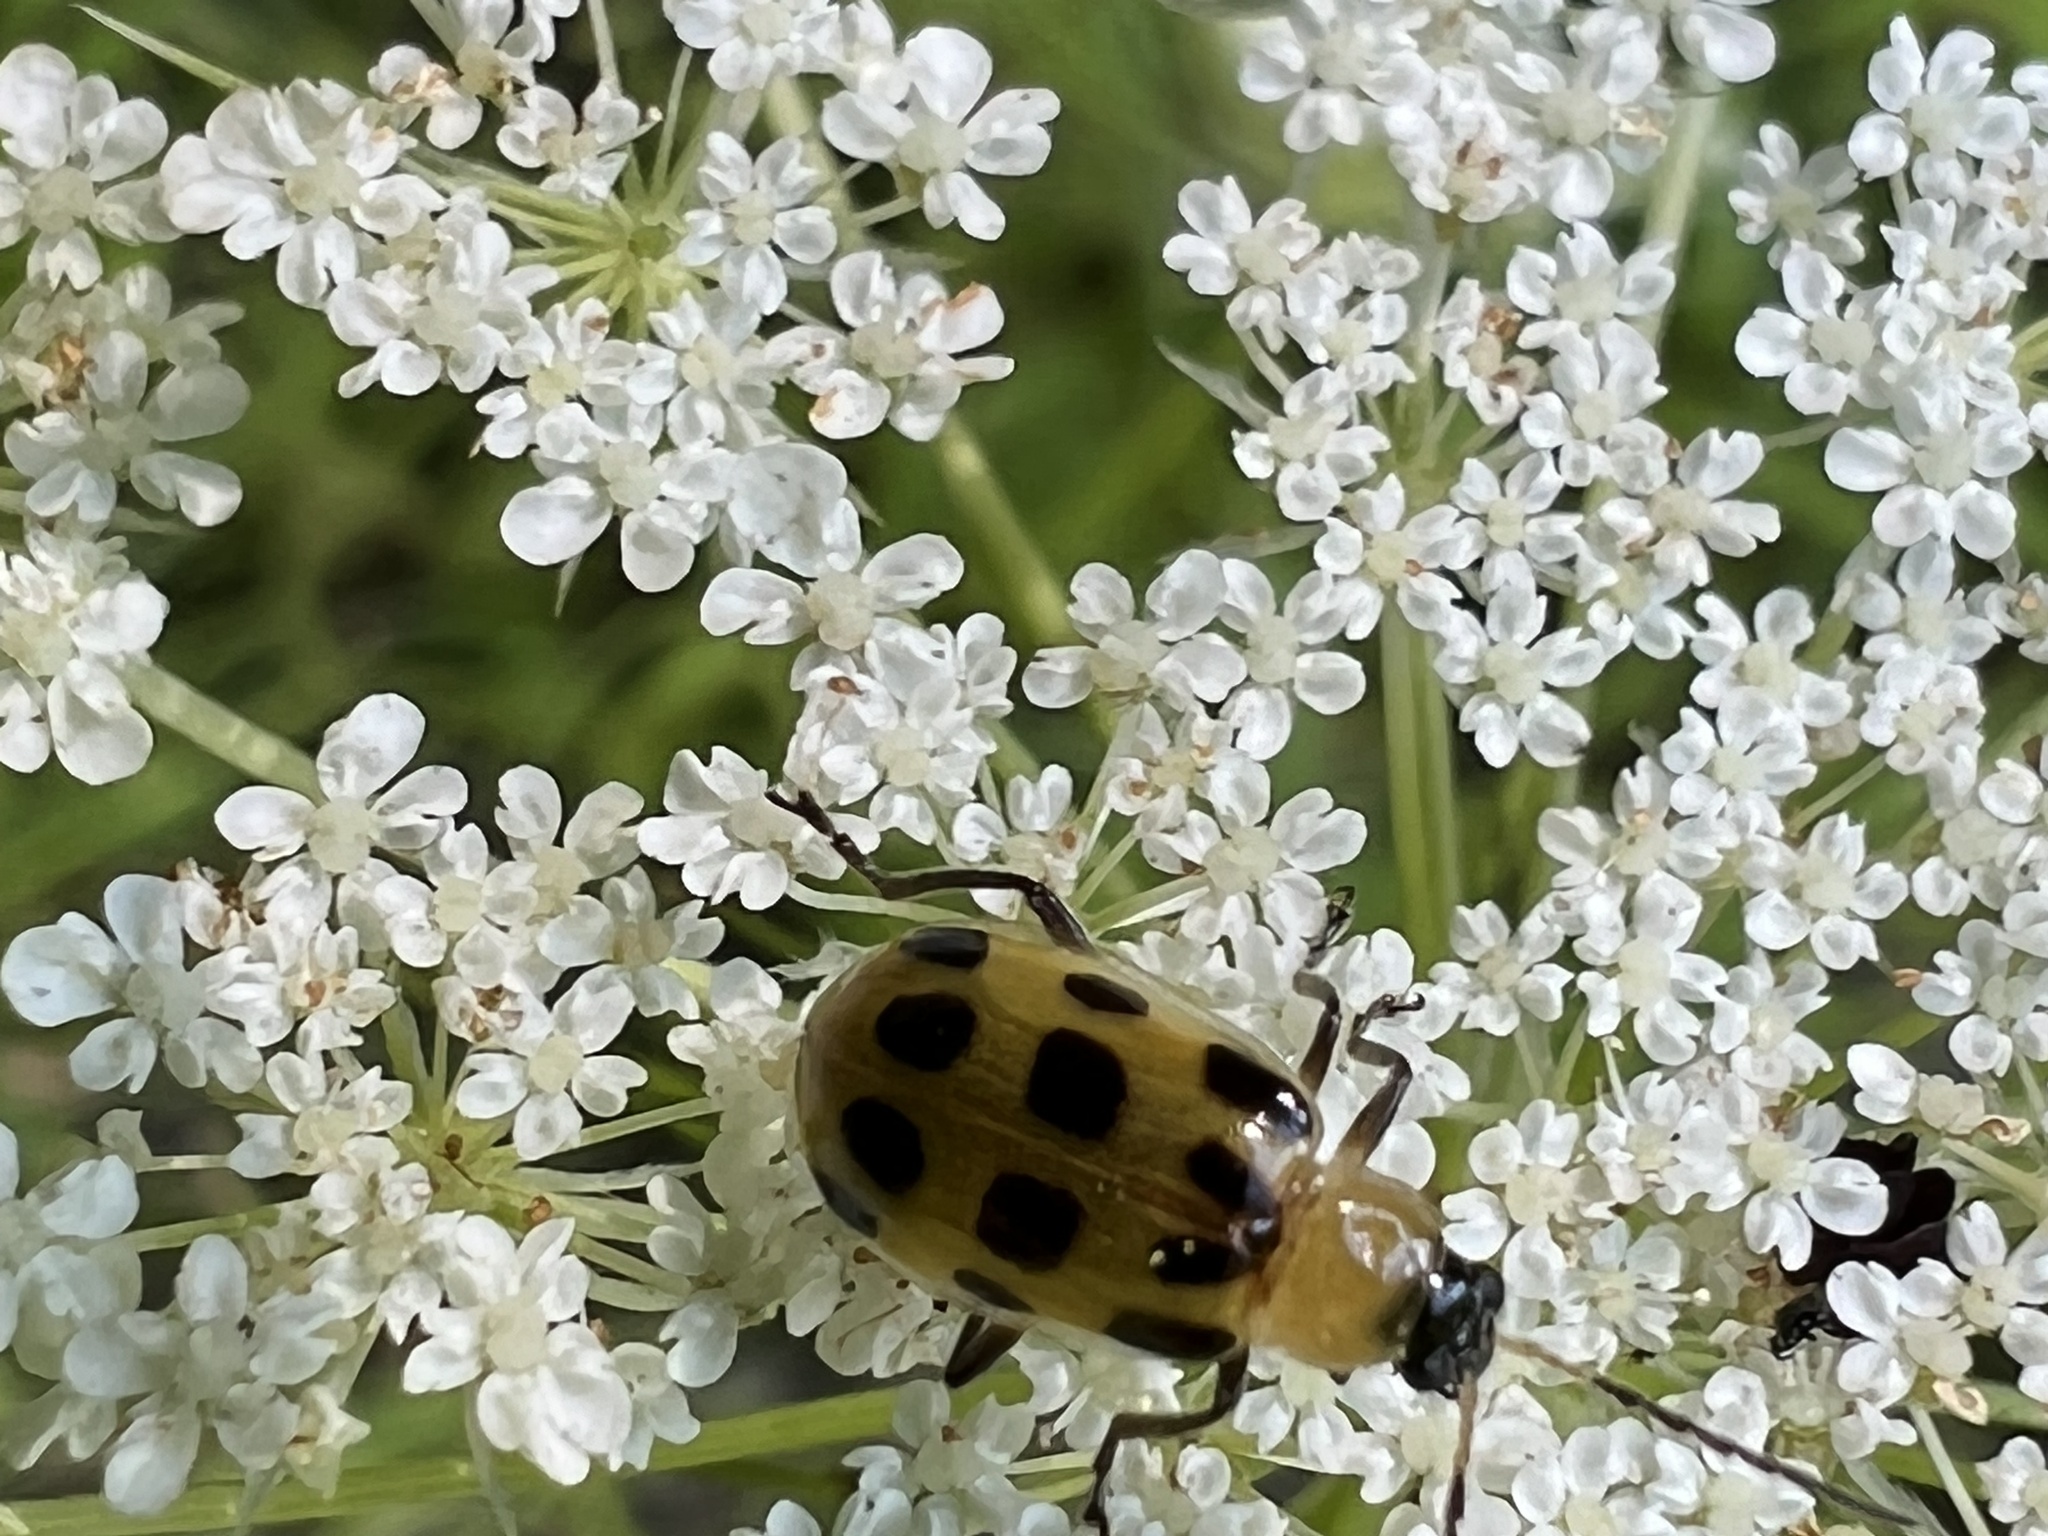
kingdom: Animalia
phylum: Arthropoda
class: Insecta
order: Coleoptera
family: Chrysomelidae
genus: Diabrotica
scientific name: Diabrotica undecimpunctata
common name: Spotted cucumber beetle
